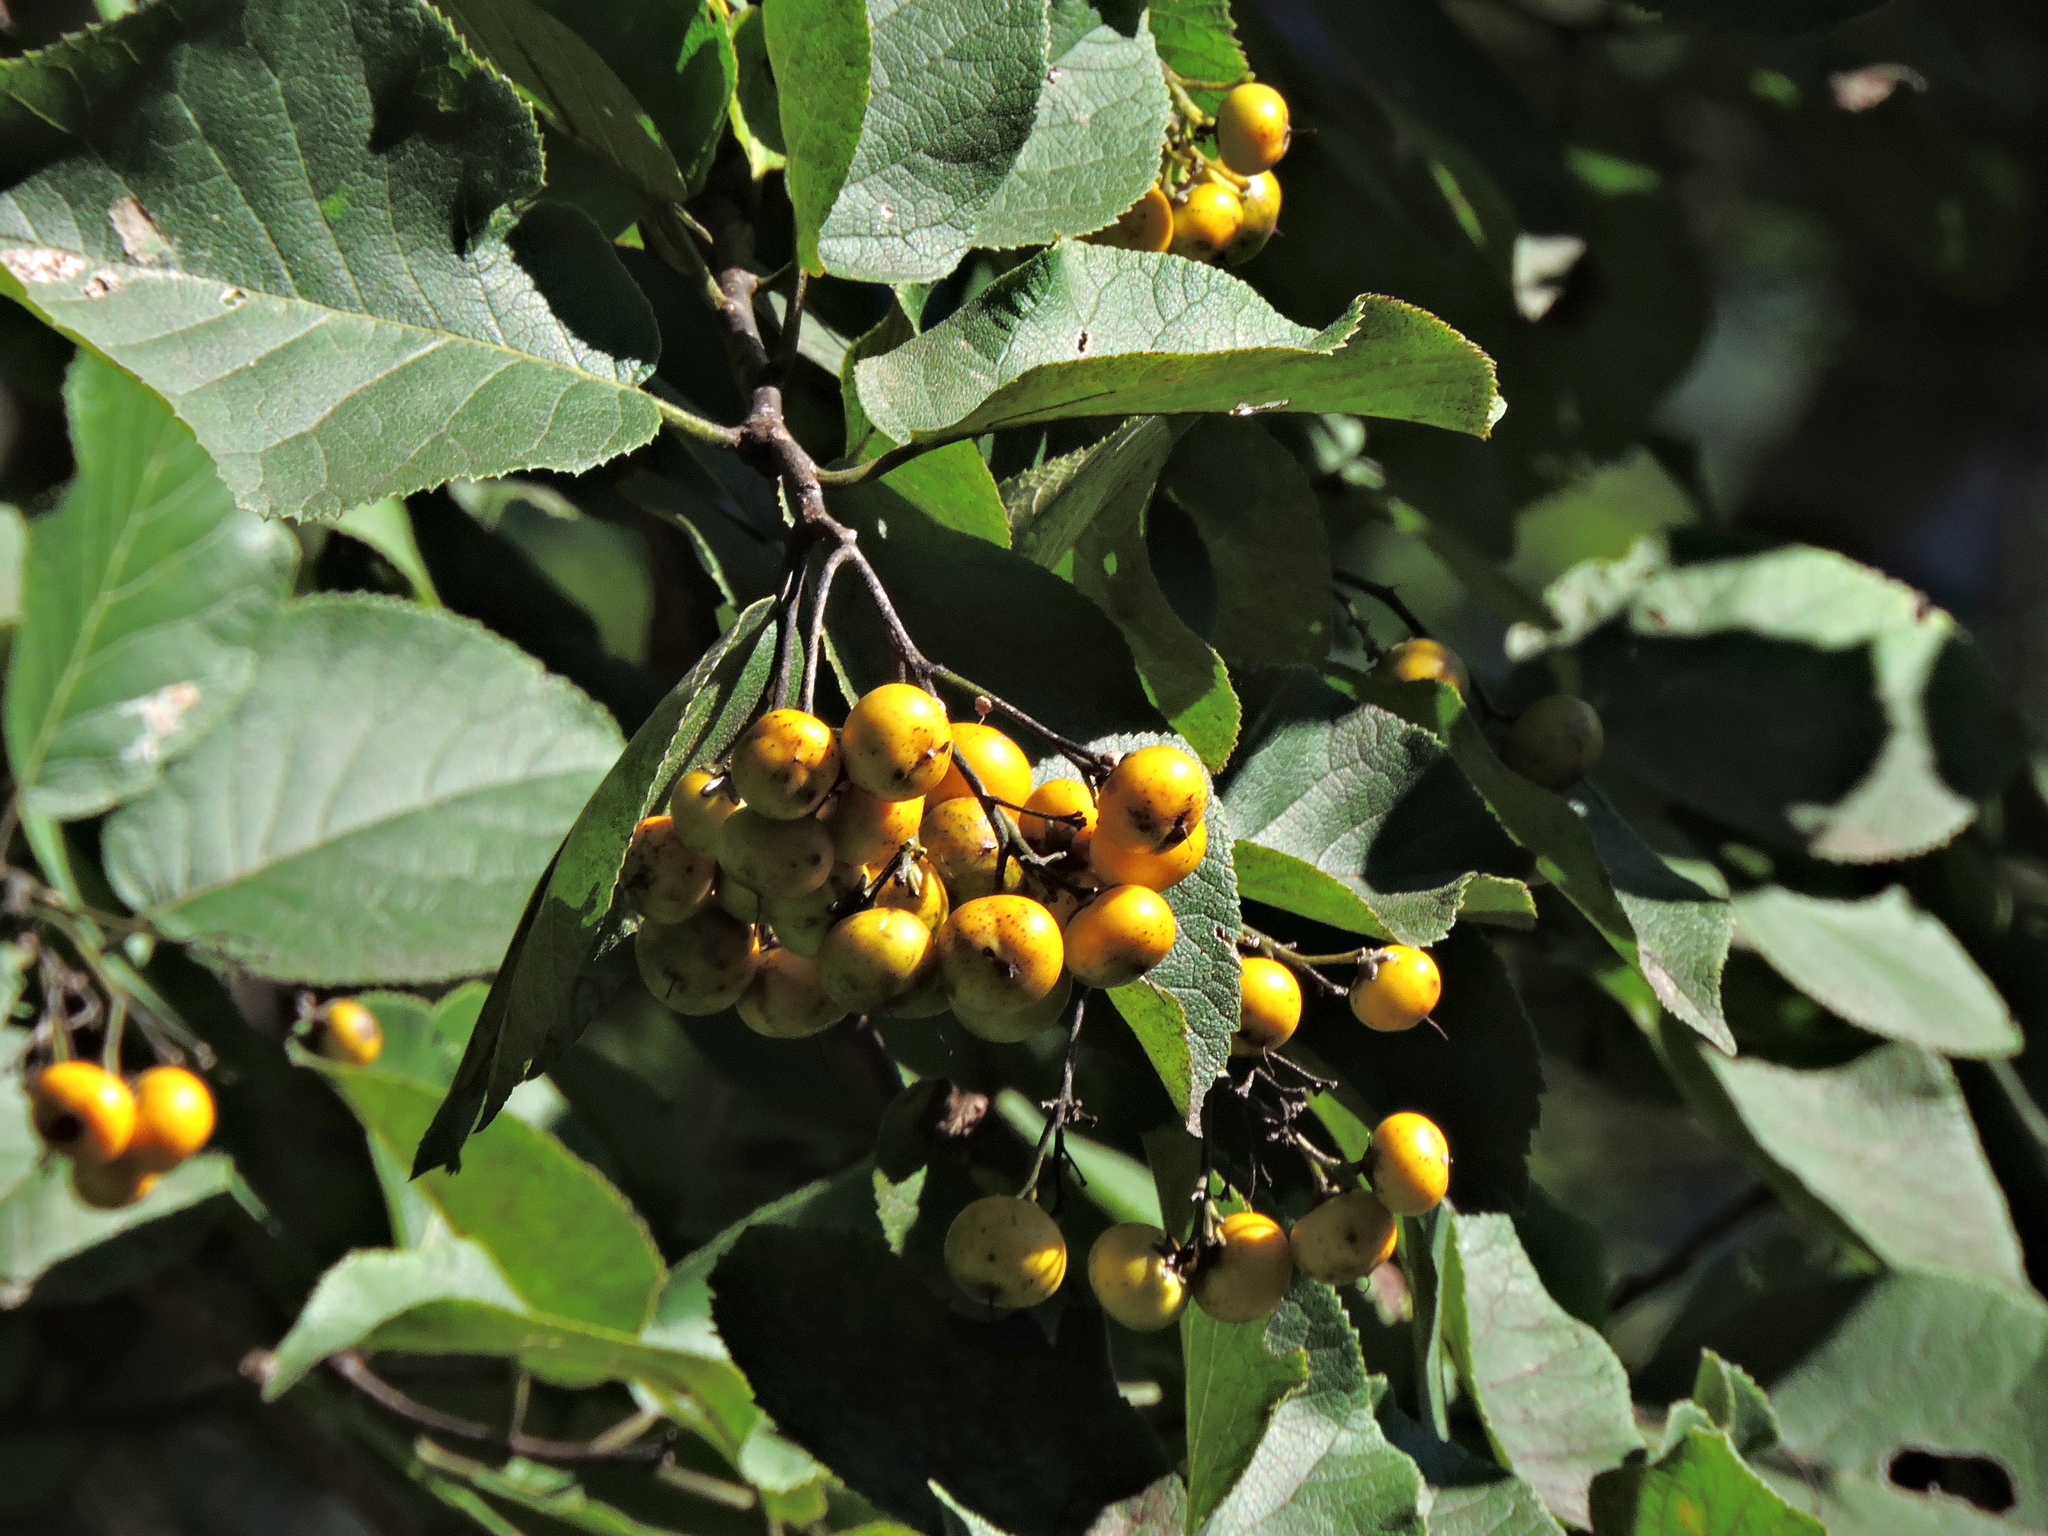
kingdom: Plantae
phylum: Tracheophyta
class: Magnoliopsida
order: Boraginales
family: Ehretiaceae
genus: Ehretia
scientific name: Ehretia dicksonii
